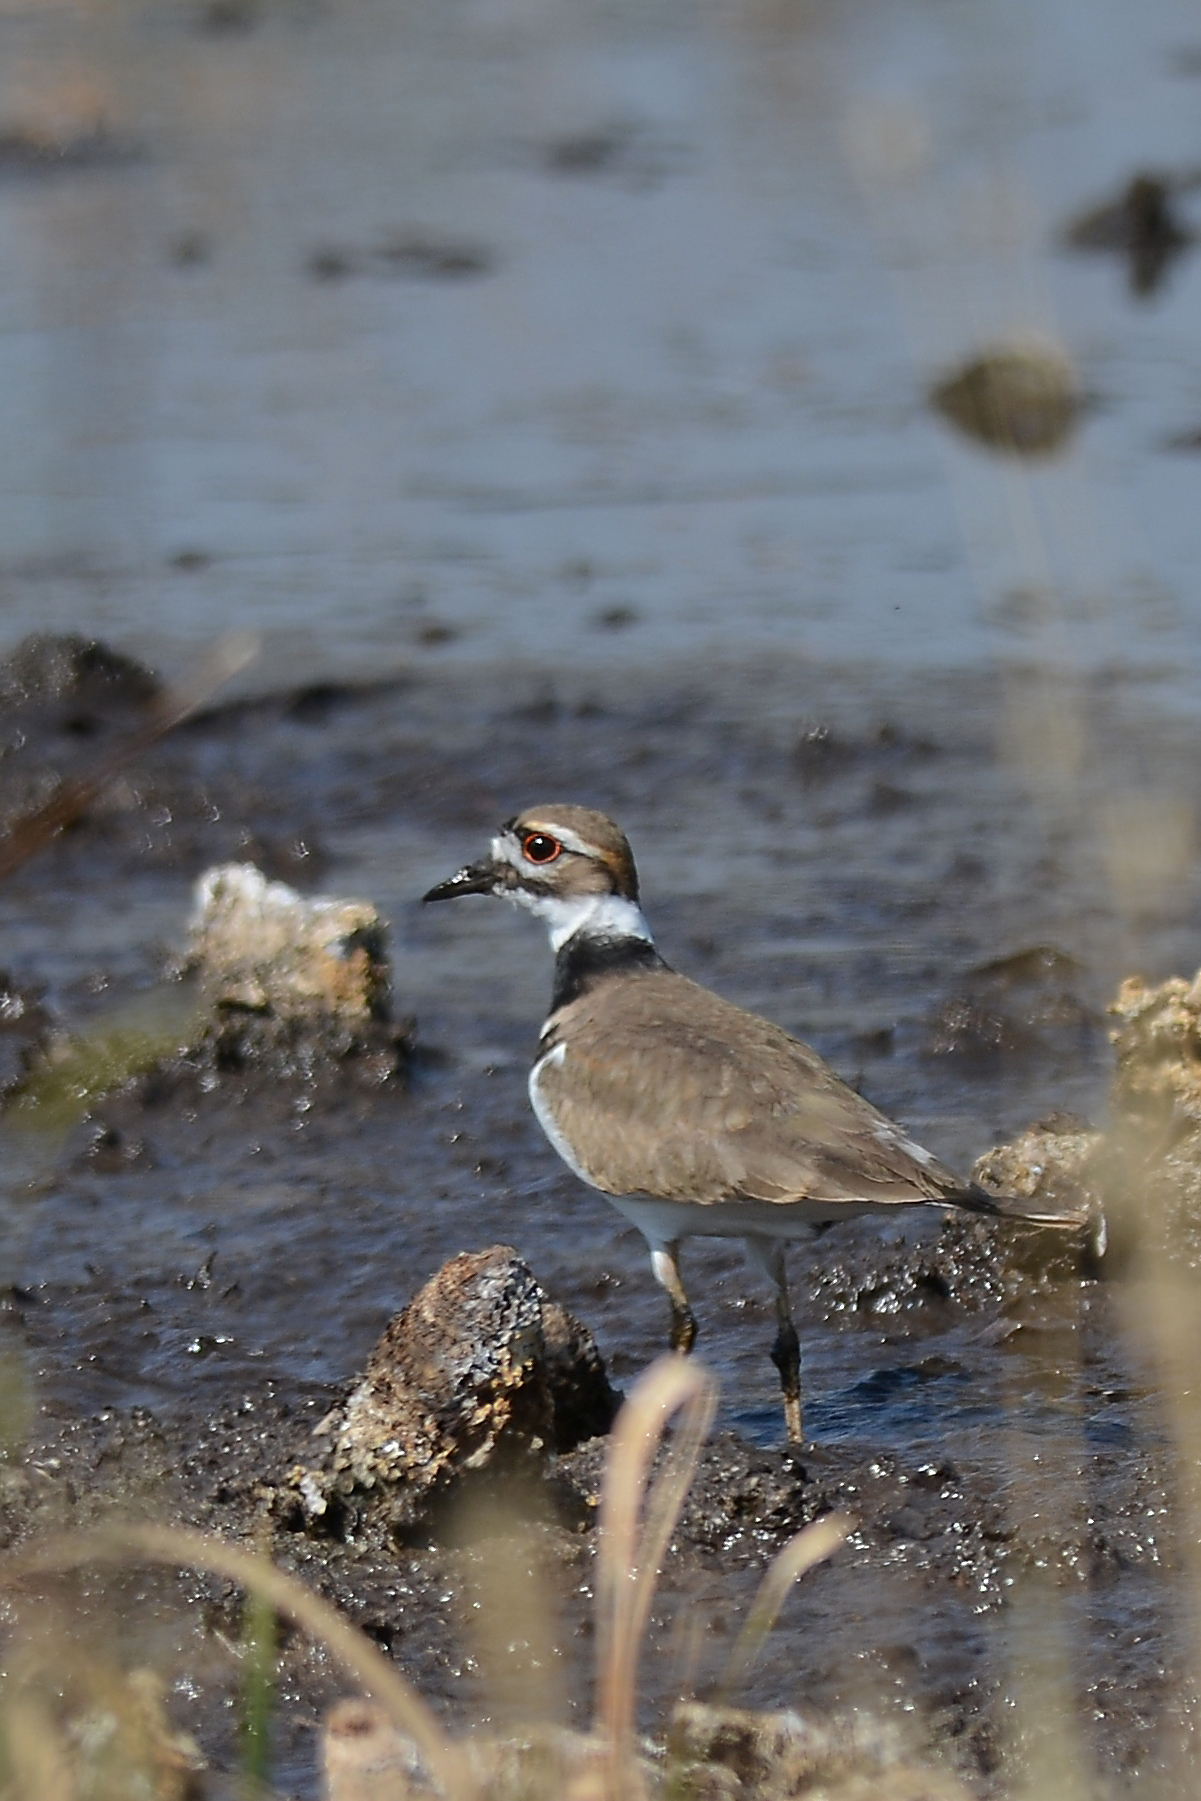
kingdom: Animalia
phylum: Chordata
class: Aves
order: Charadriiformes
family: Charadriidae
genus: Charadrius
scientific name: Charadrius vociferus
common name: Killdeer
